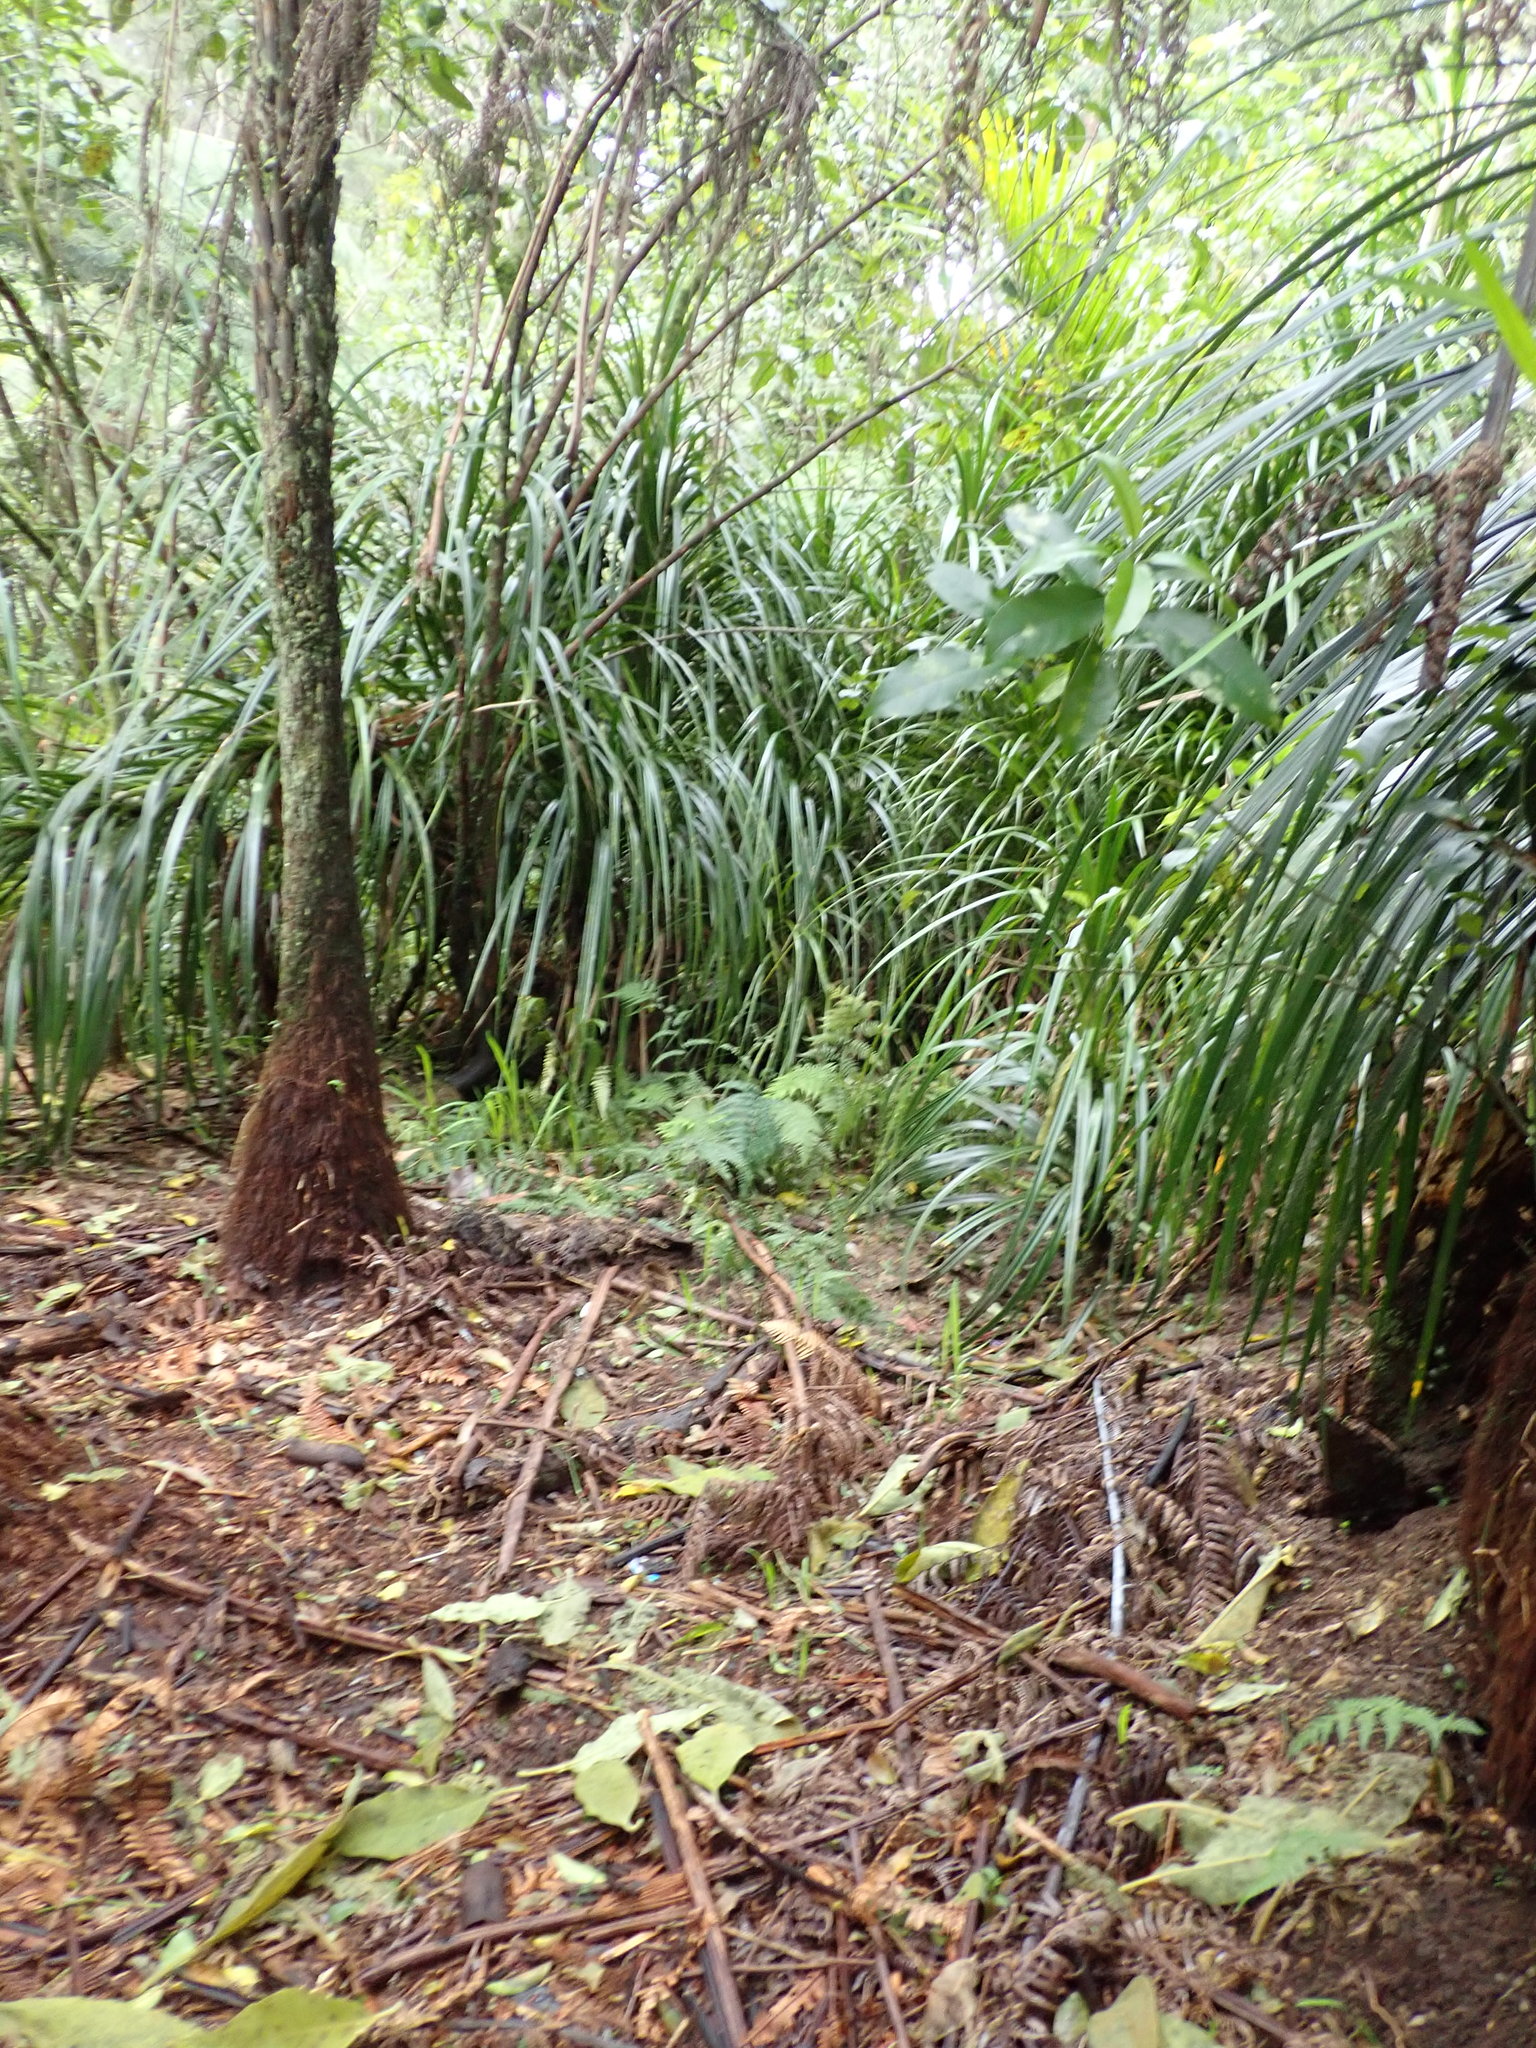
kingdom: Plantae
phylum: Tracheophyta
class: Liliopsida
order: Pandanales
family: Pandanaceae
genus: Freycinetia
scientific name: Freycinetia banksii
